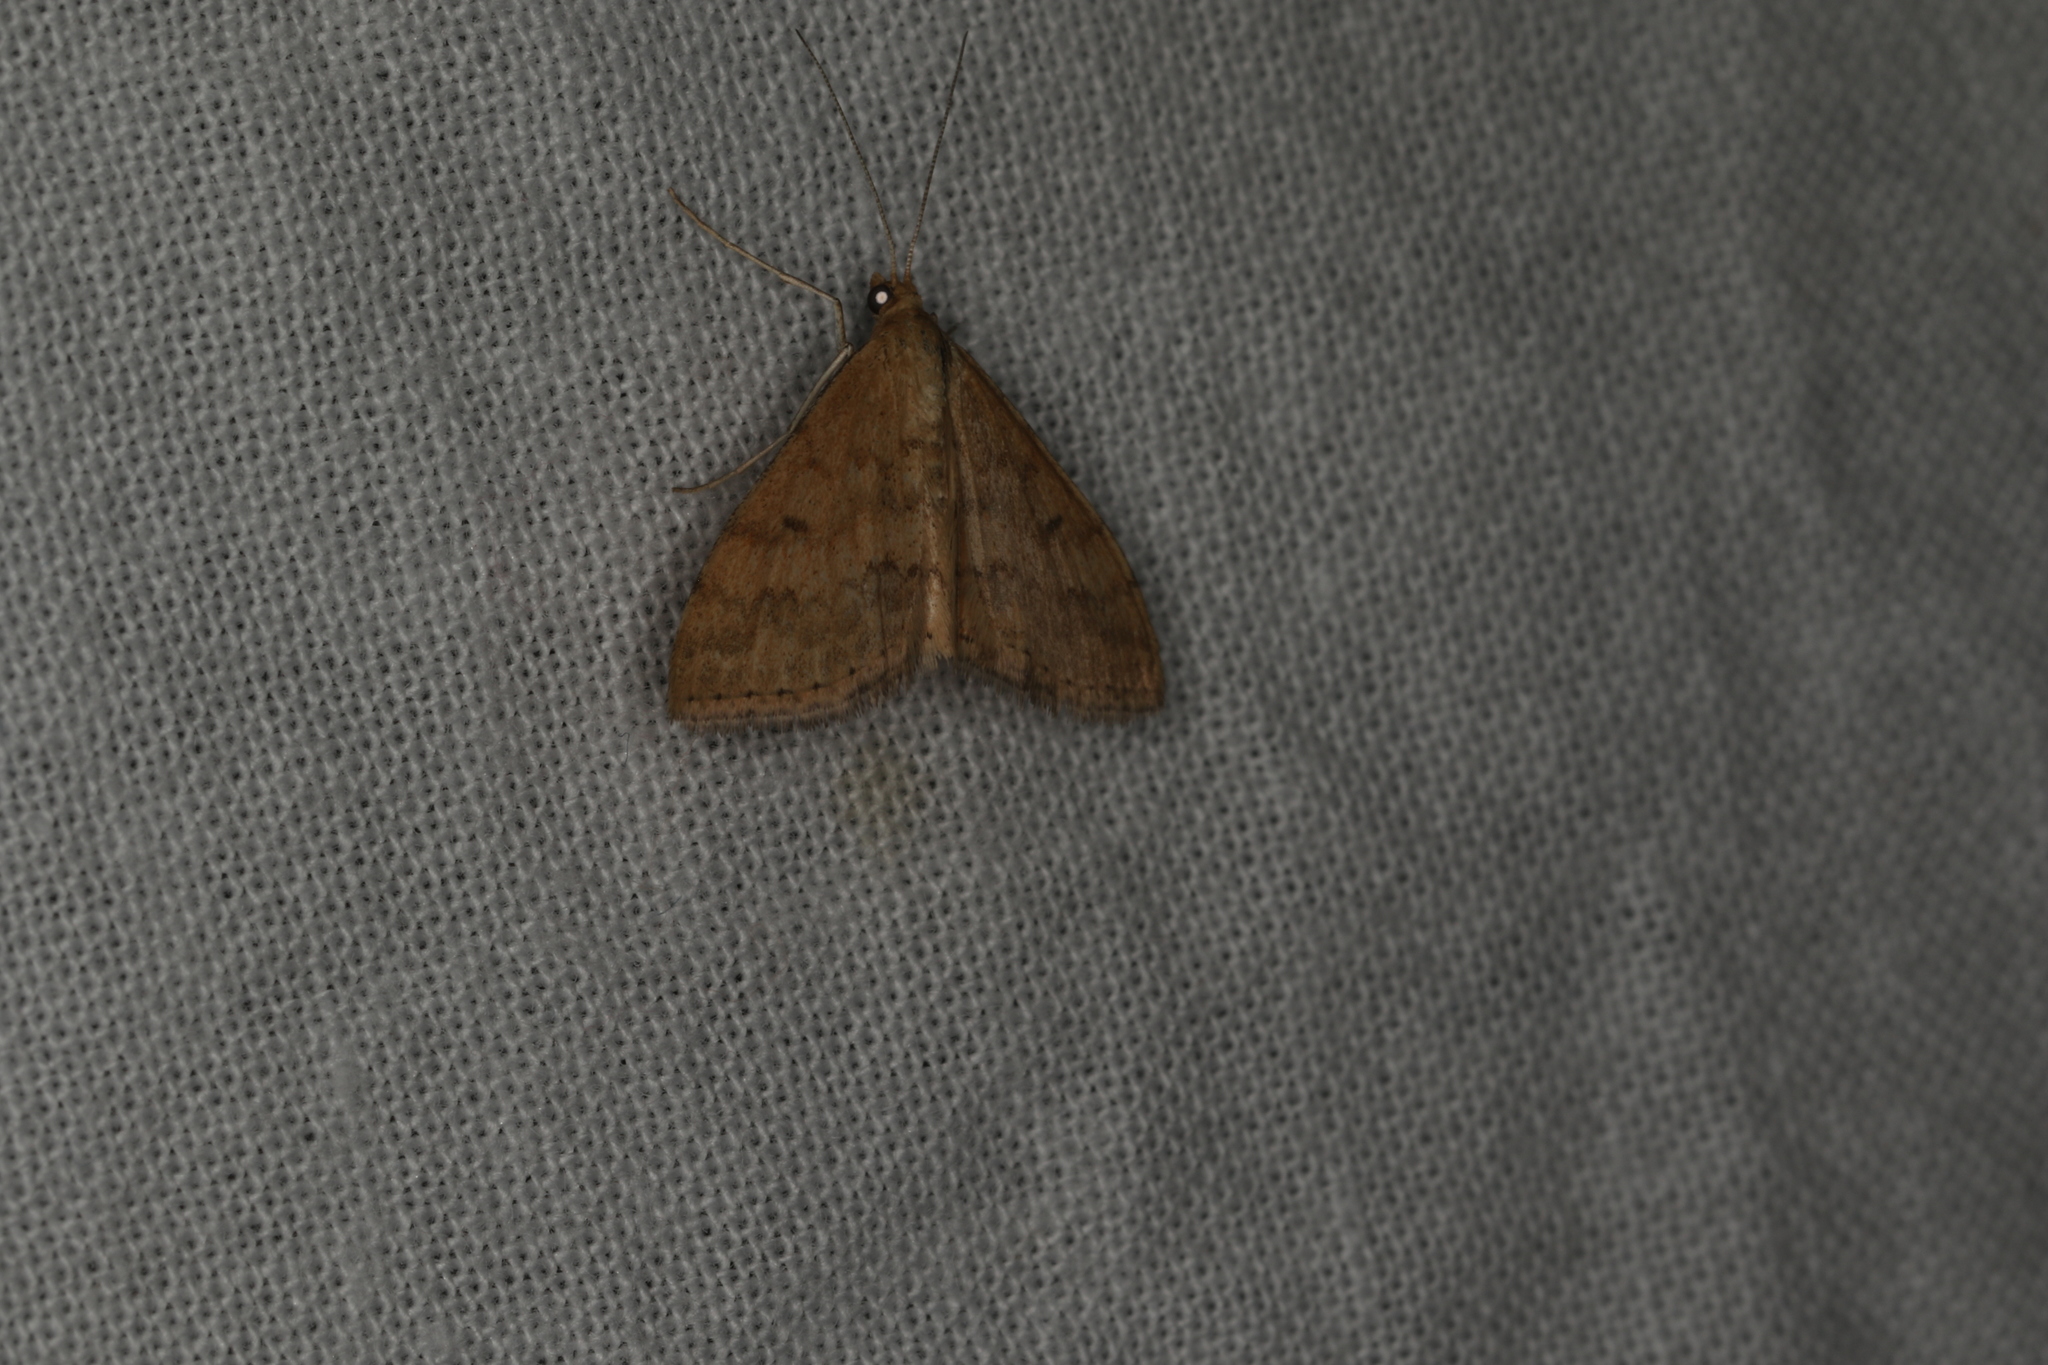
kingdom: Animalia
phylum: Arthropoda
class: Insecta
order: Lepidoptera
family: Geometridae
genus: Scopula
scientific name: Scopula rubraria
